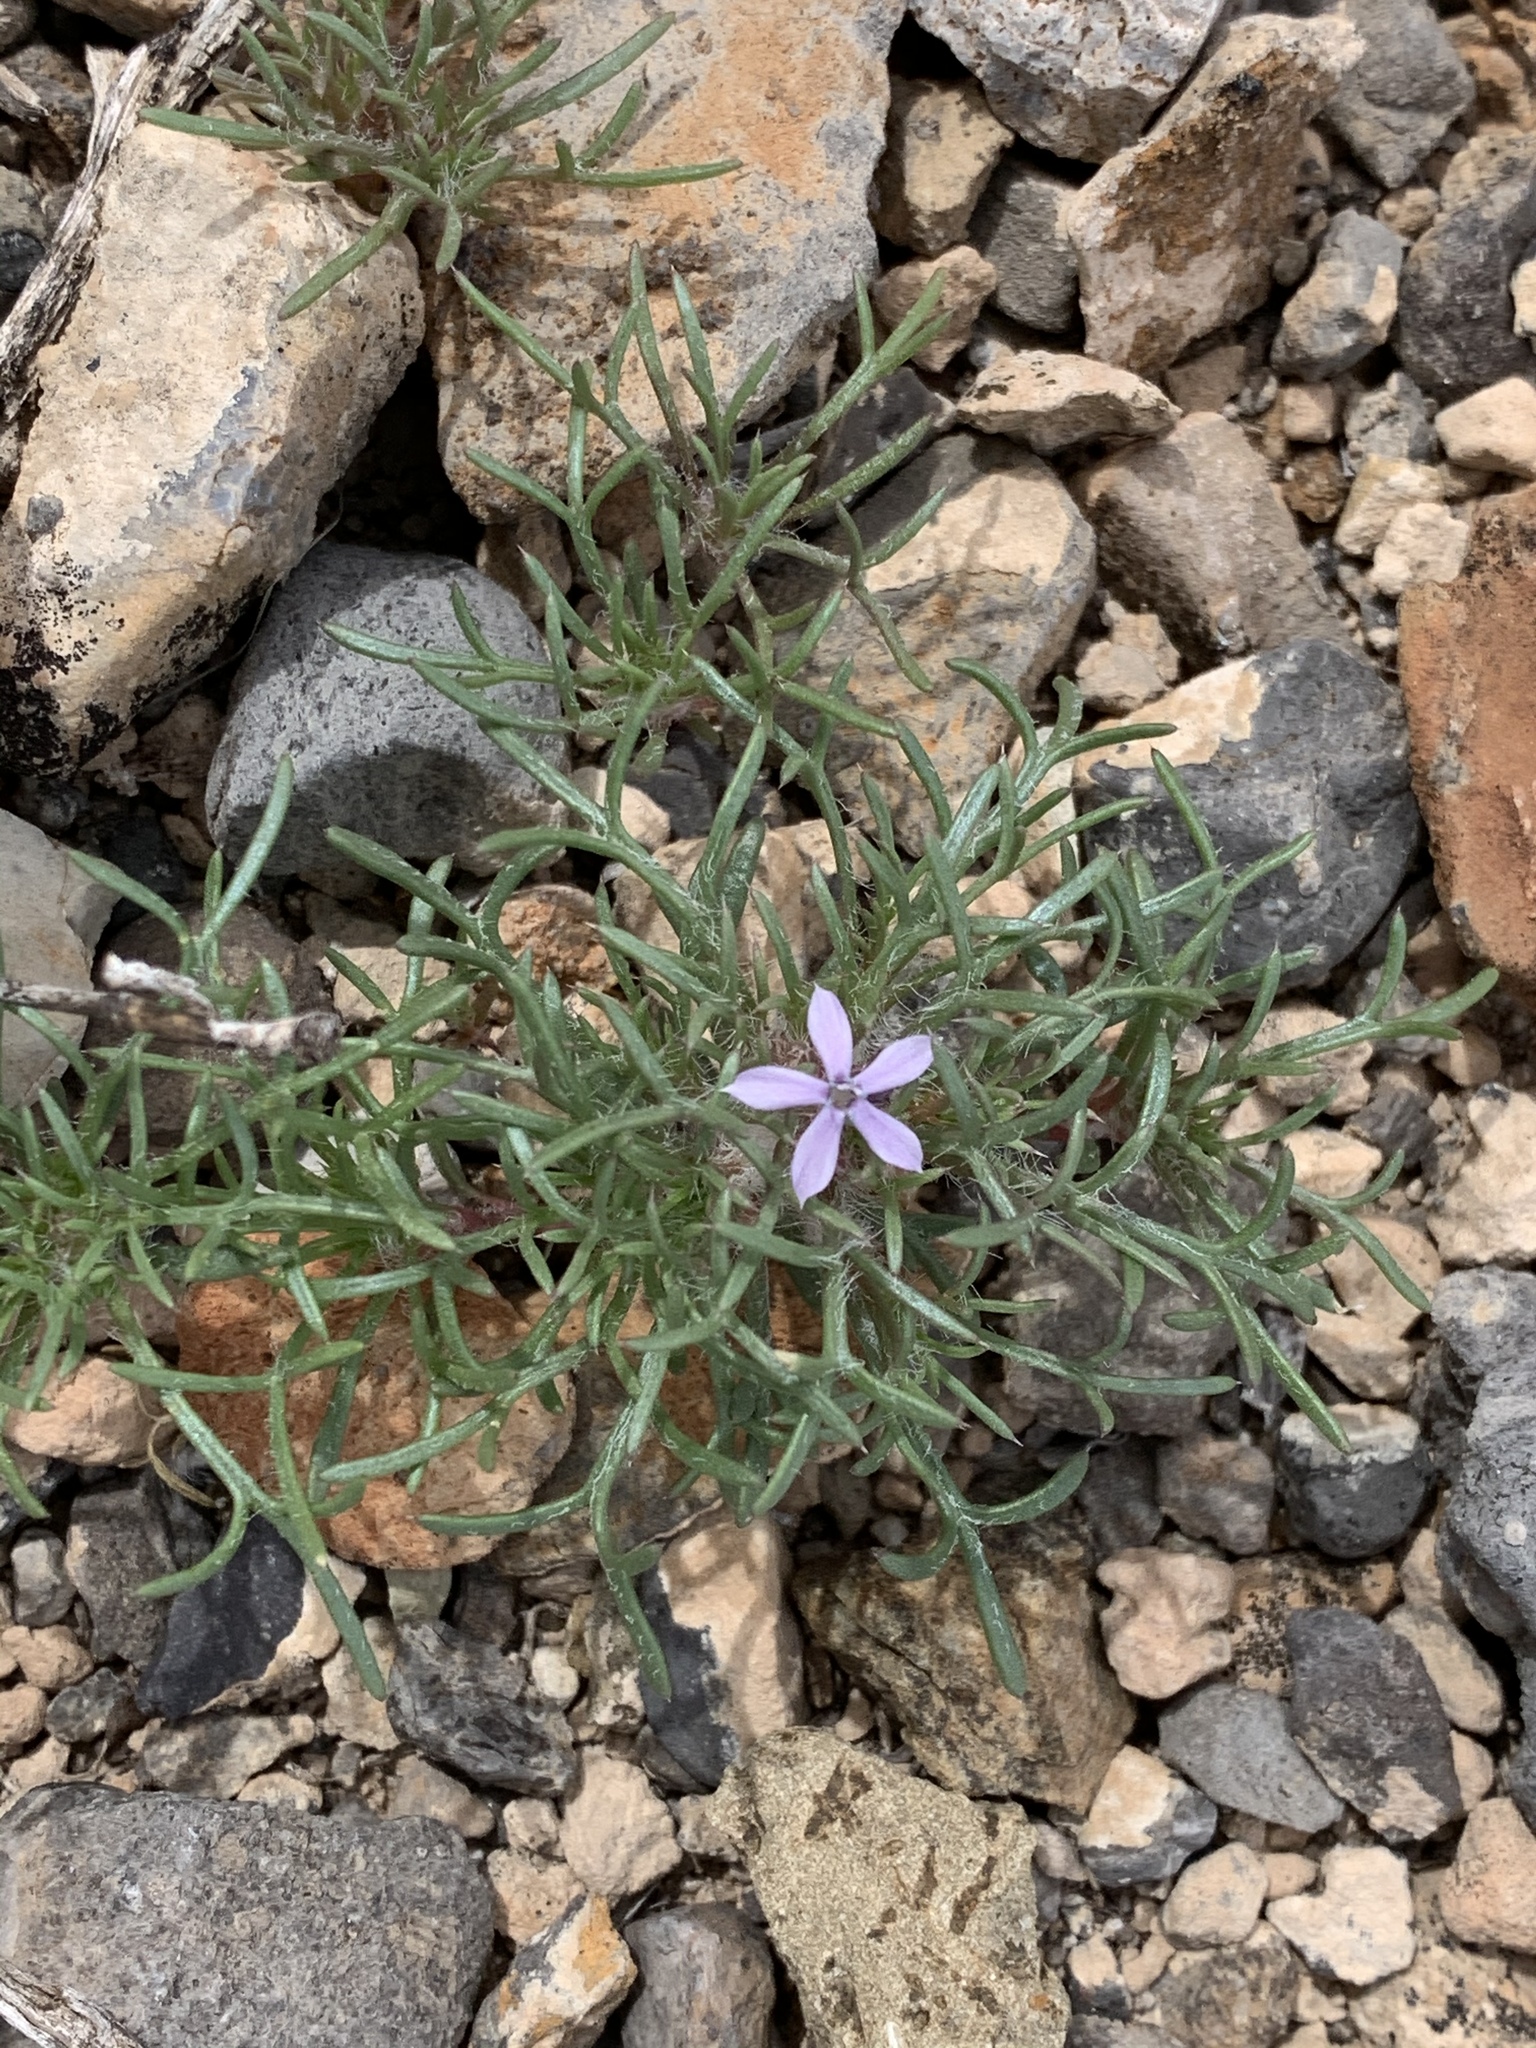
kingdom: Plantae
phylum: Tracheophyta
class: Magnoliopsida
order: Ericales
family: Polemoniaceae
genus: Ipomopsis
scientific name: Ipomopsis pumila
